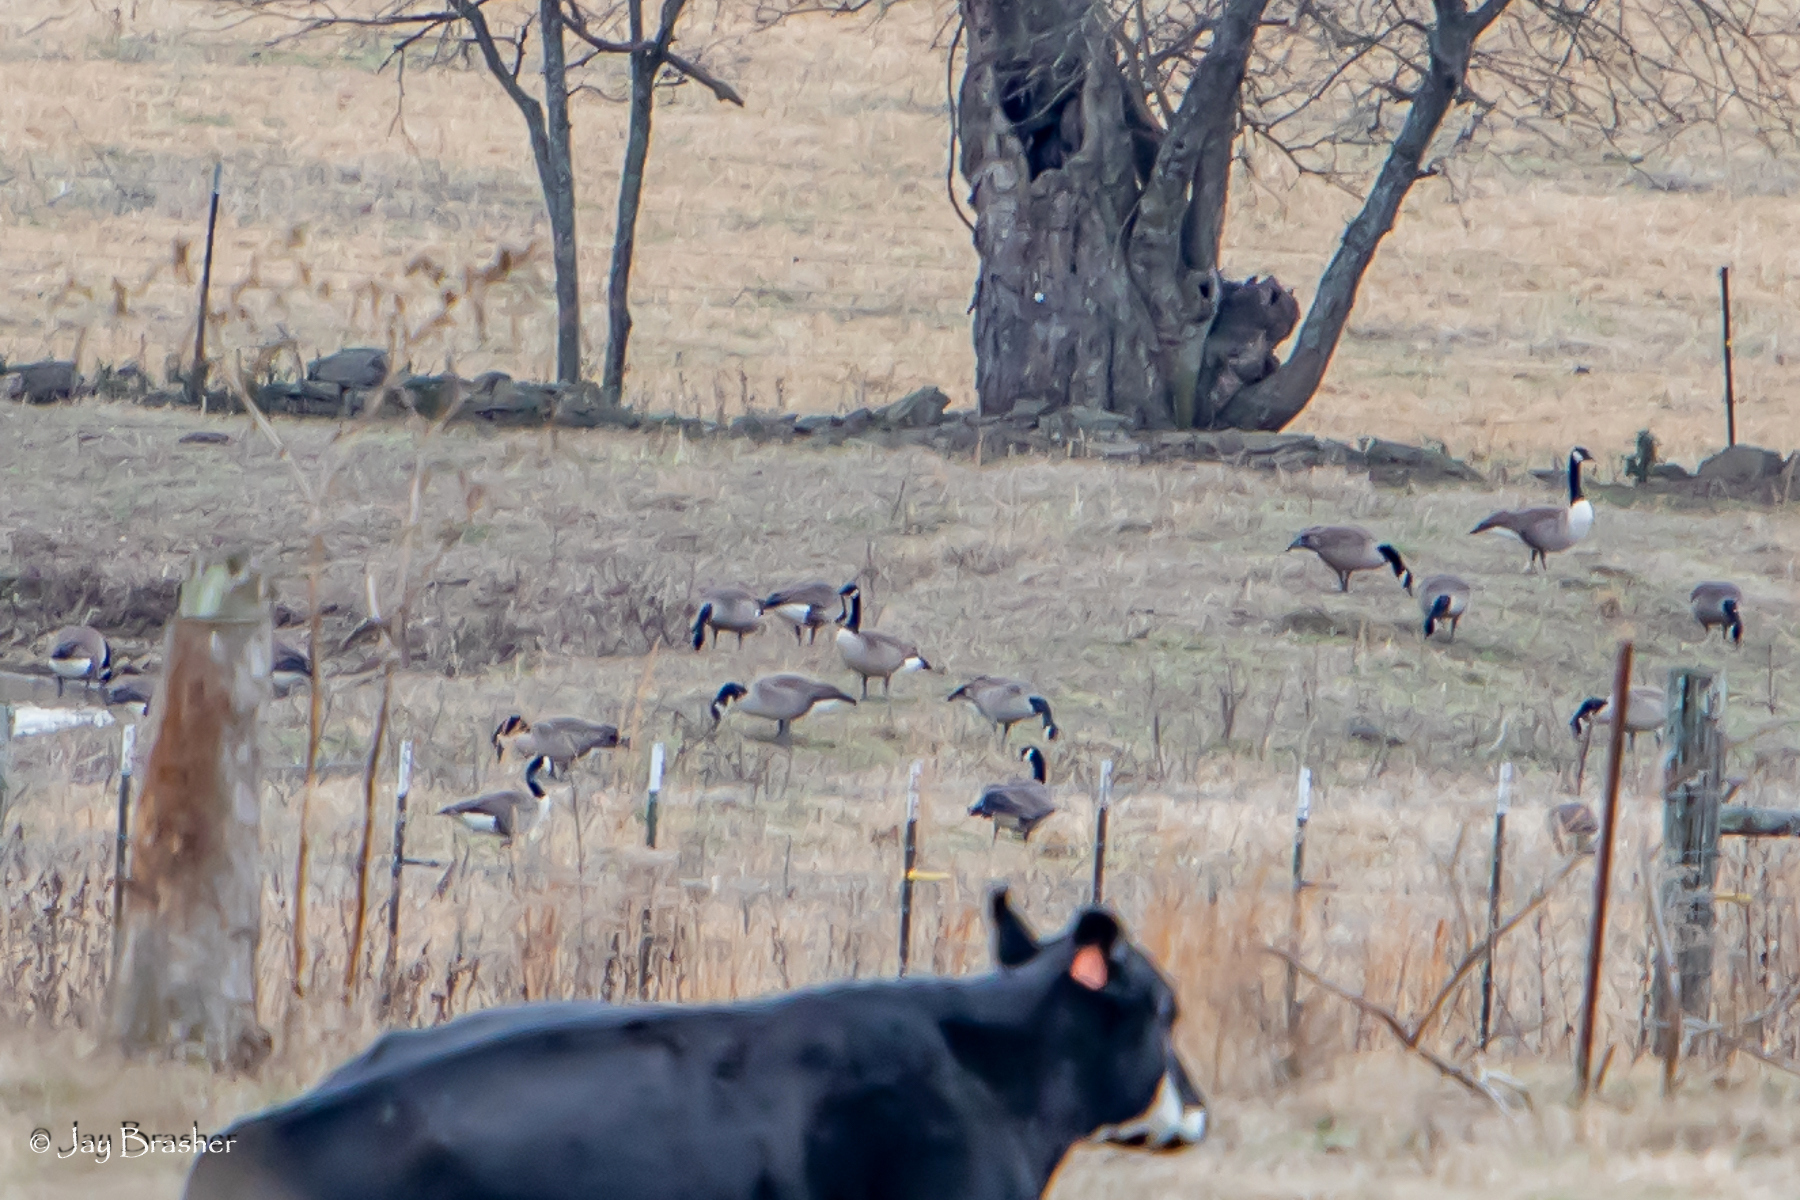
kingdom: Animalia
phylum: Chordata
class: Aves
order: Anseriformes
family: Anatidae
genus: Branta
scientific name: Branta canadensis
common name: Canada goose
